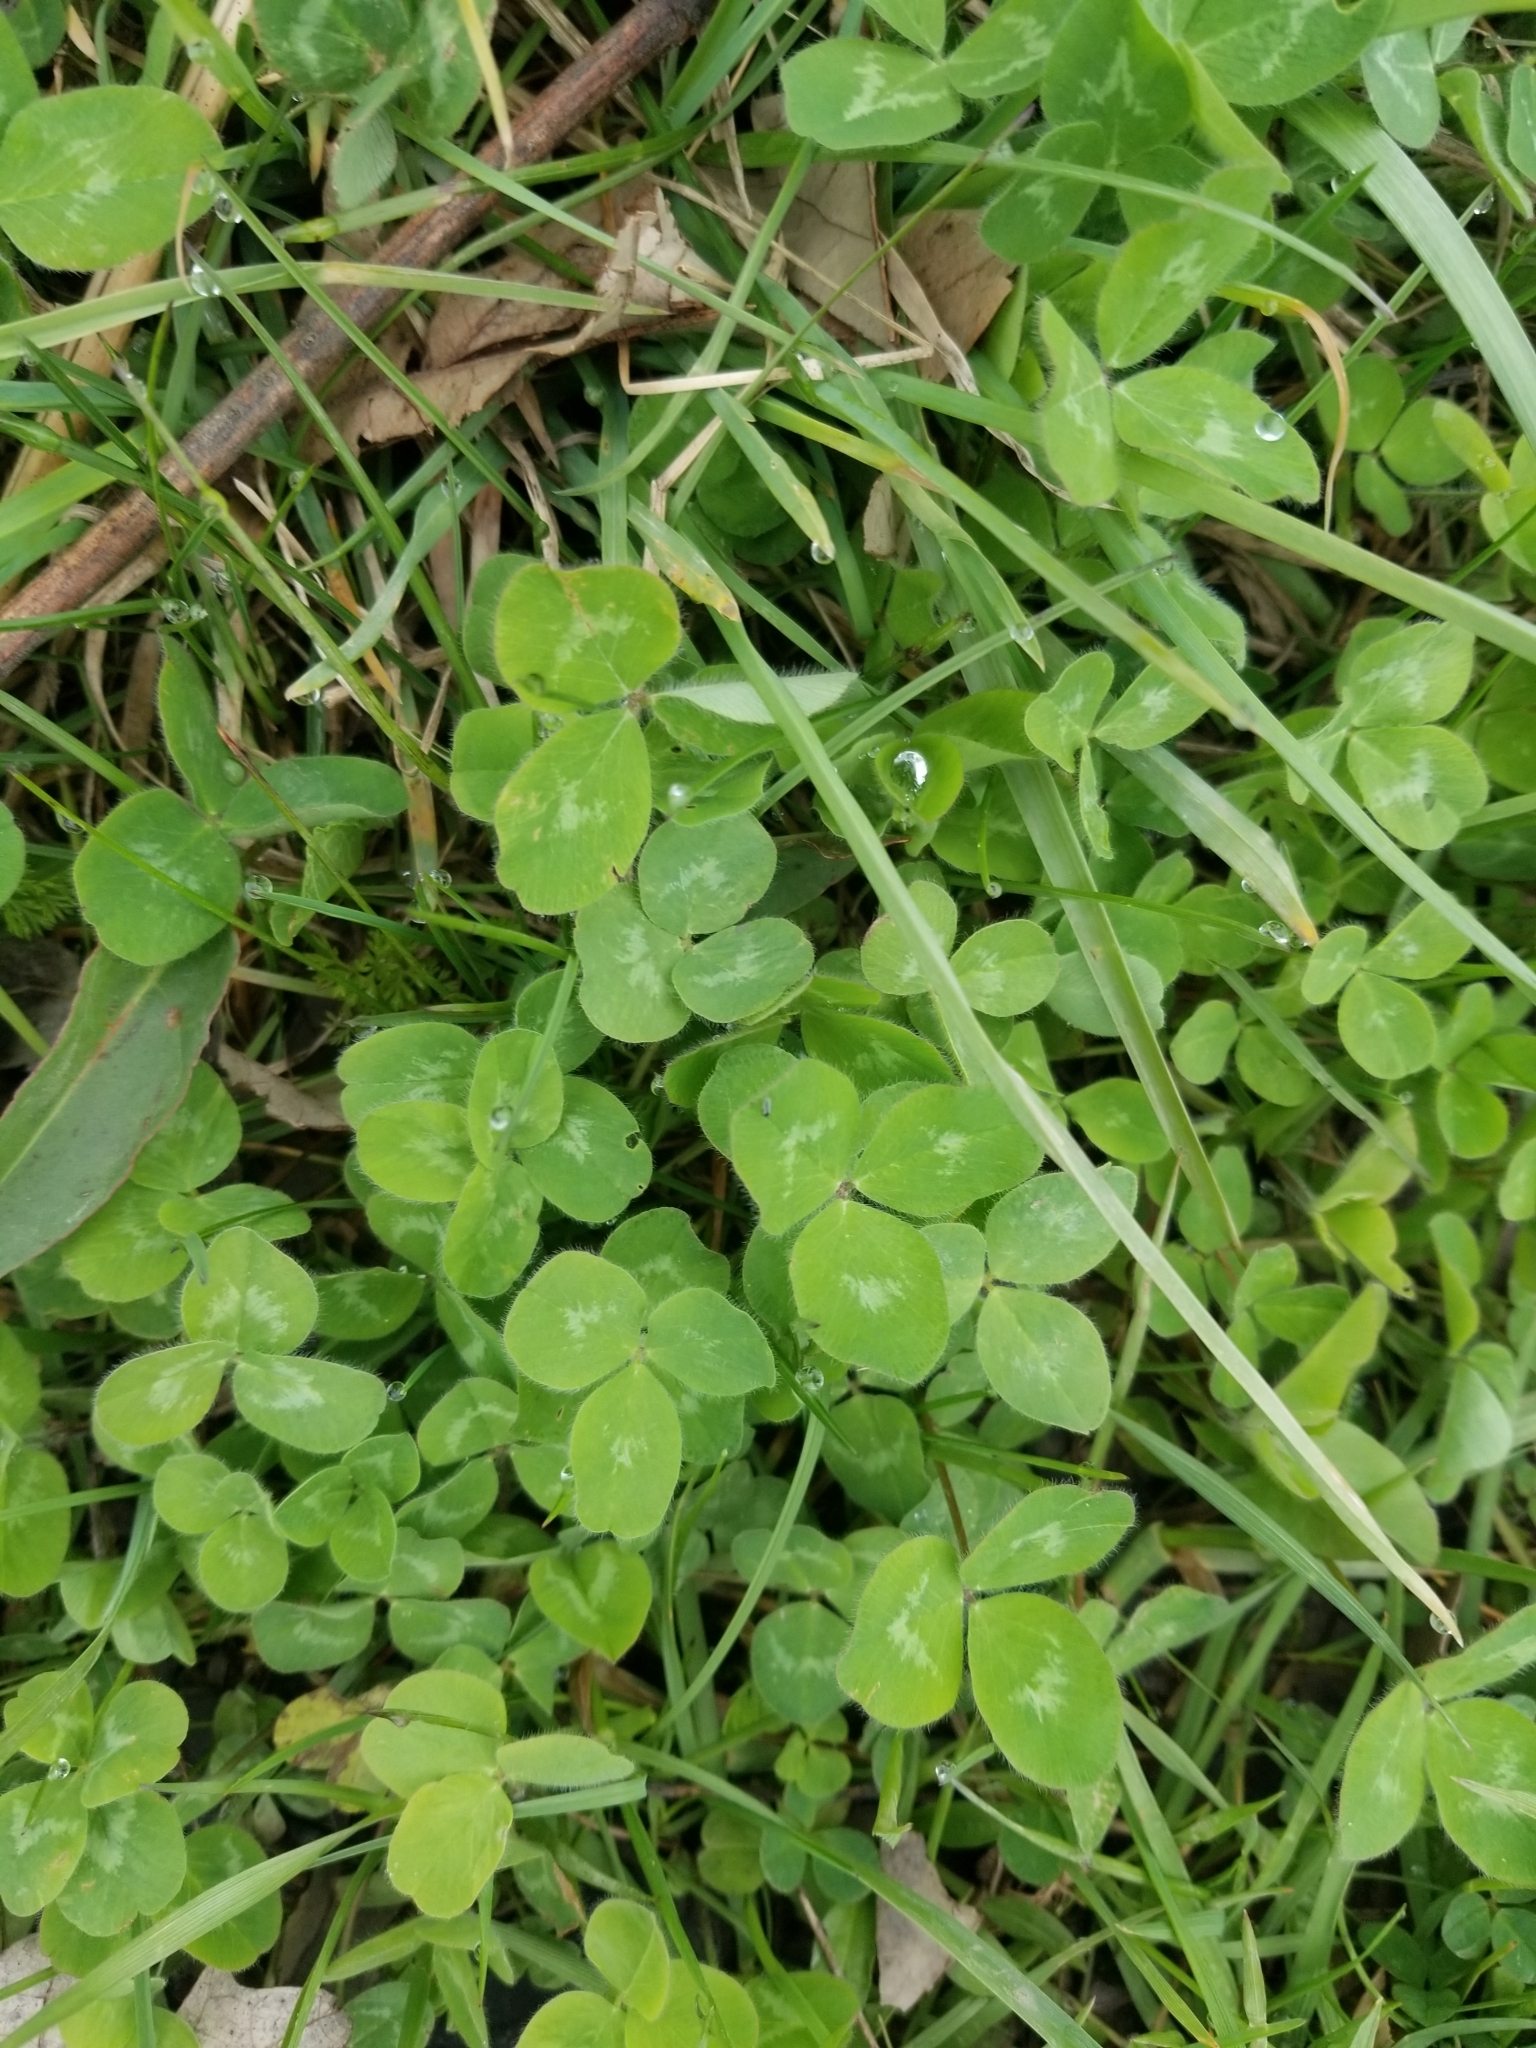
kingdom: Plantae
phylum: Tracheophyta
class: Magnoliopsida
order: Fabales
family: Fabaceae
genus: Trifolium
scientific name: Trifolium pratense
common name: Red clover
